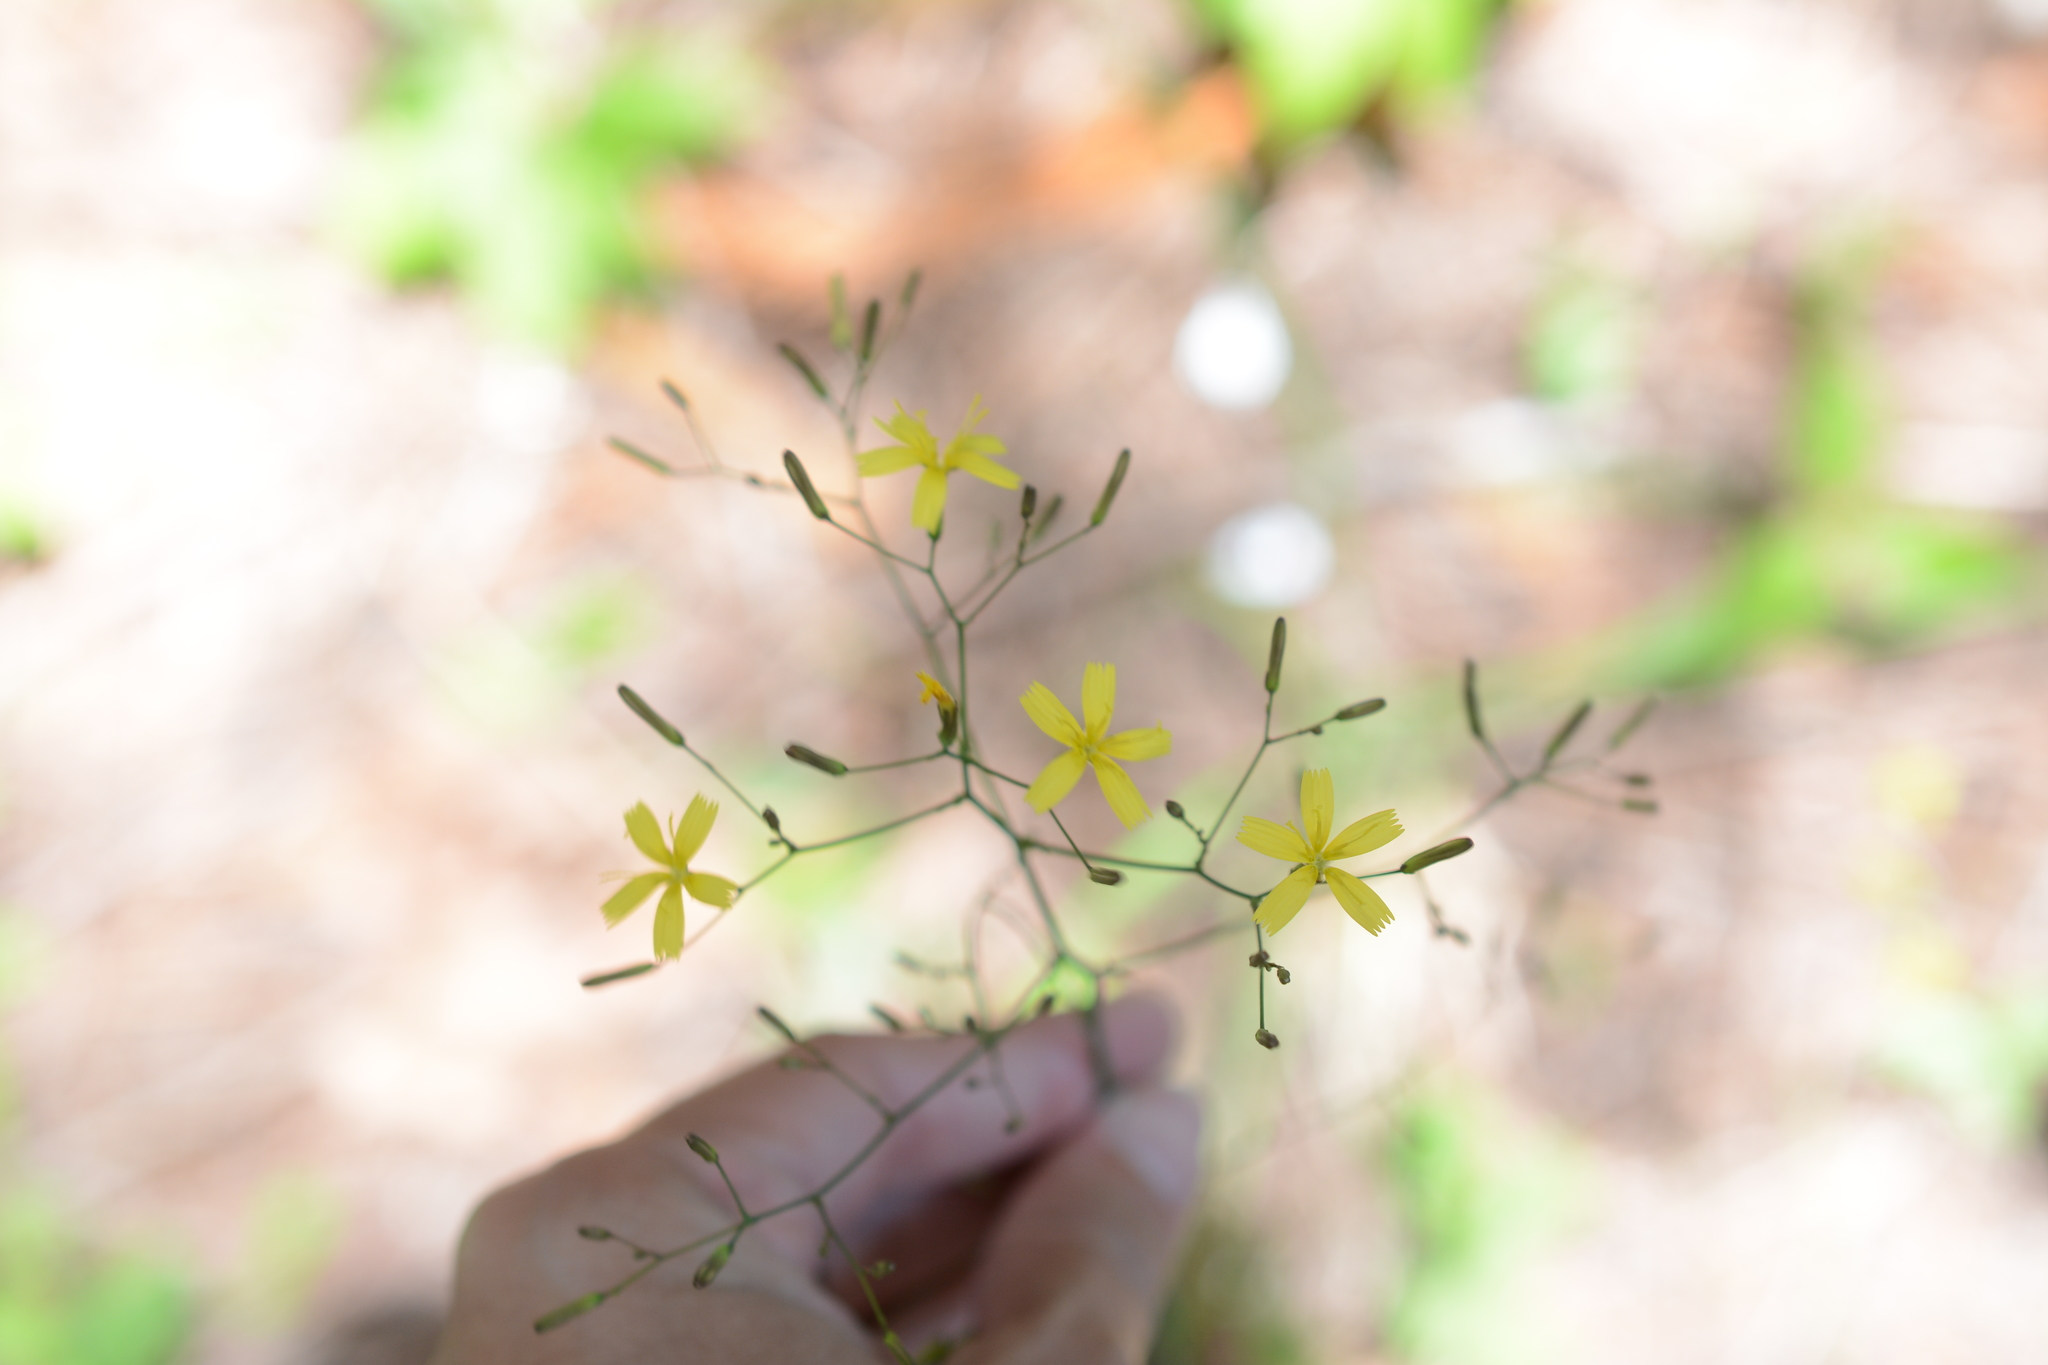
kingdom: Plantae
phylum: Tracheophyta
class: Magnoliopsida
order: Asterales
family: Asteraceae
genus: Mycelis
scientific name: Mycelis muralis
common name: Wall lettuce
